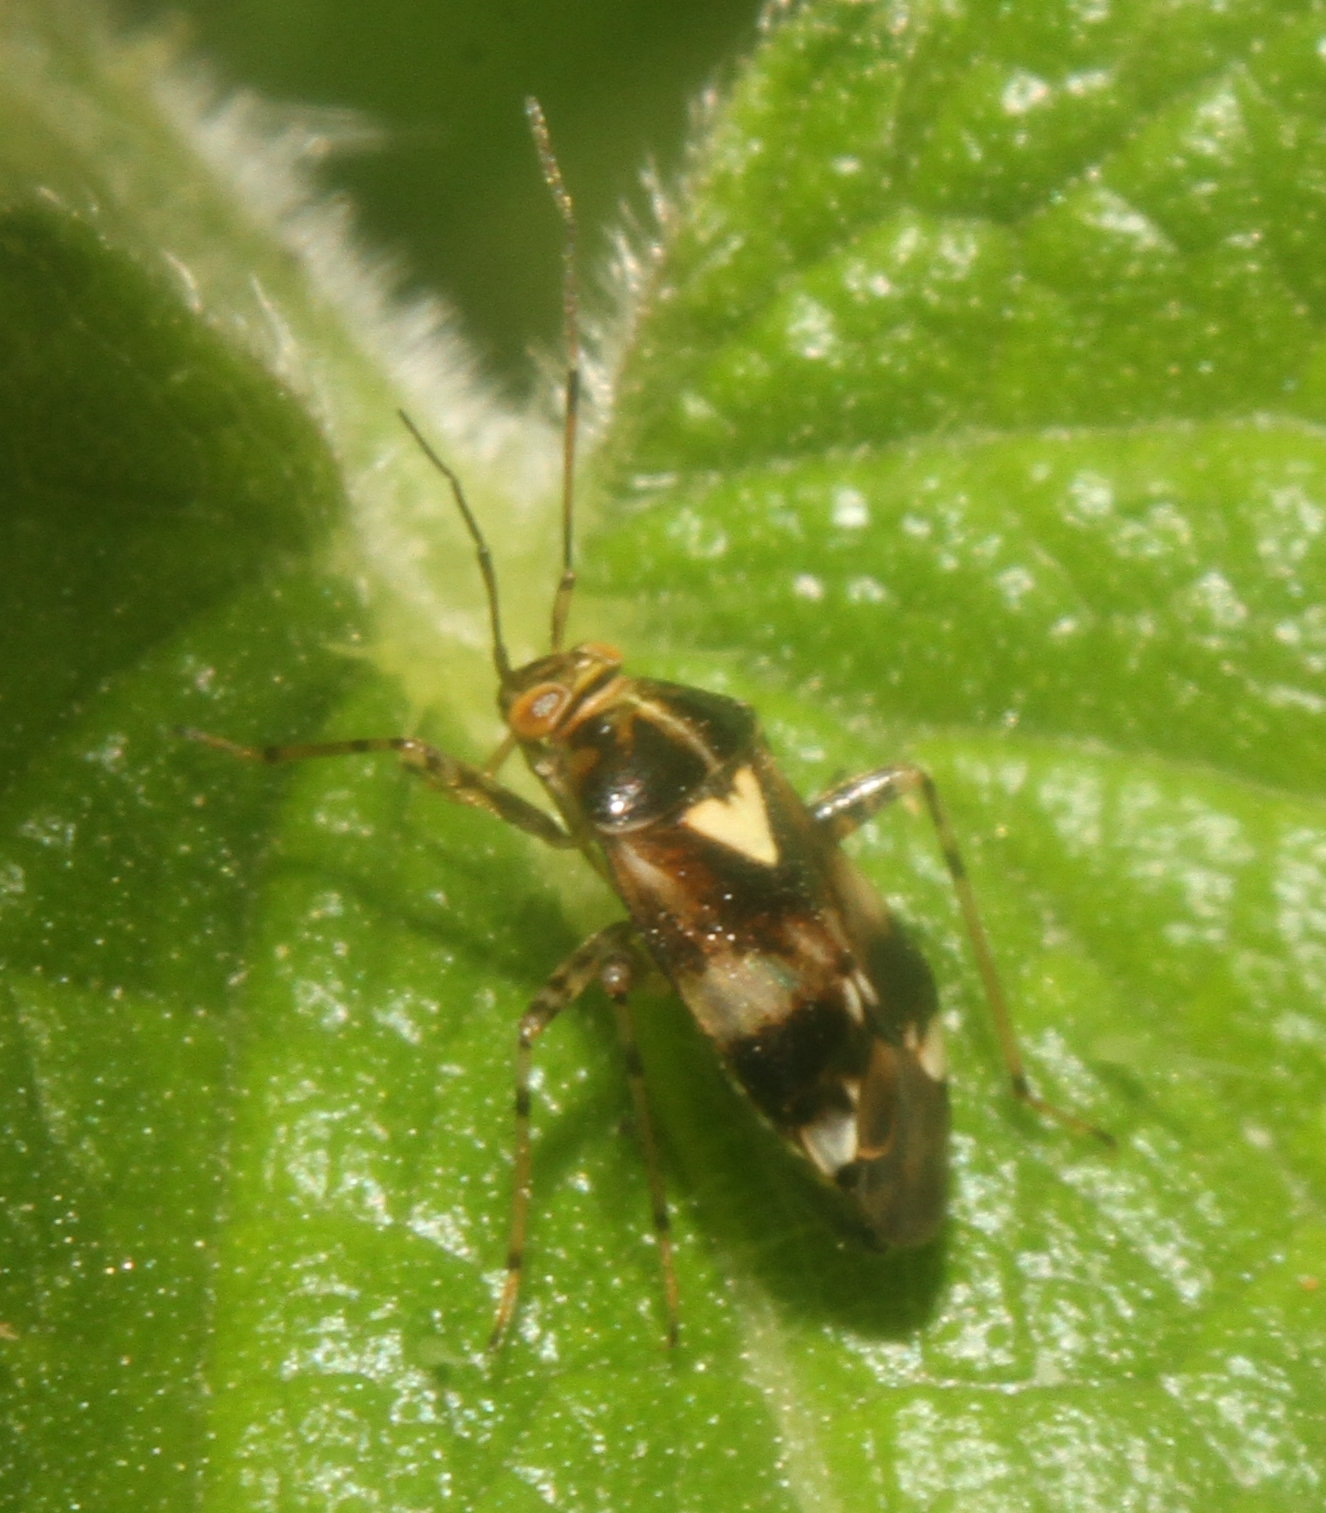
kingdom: Animalia
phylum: Arthropoda
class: Insecta
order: Hemiptera
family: Miridae
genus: Liocoris
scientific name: Liocoris tripustulatus
